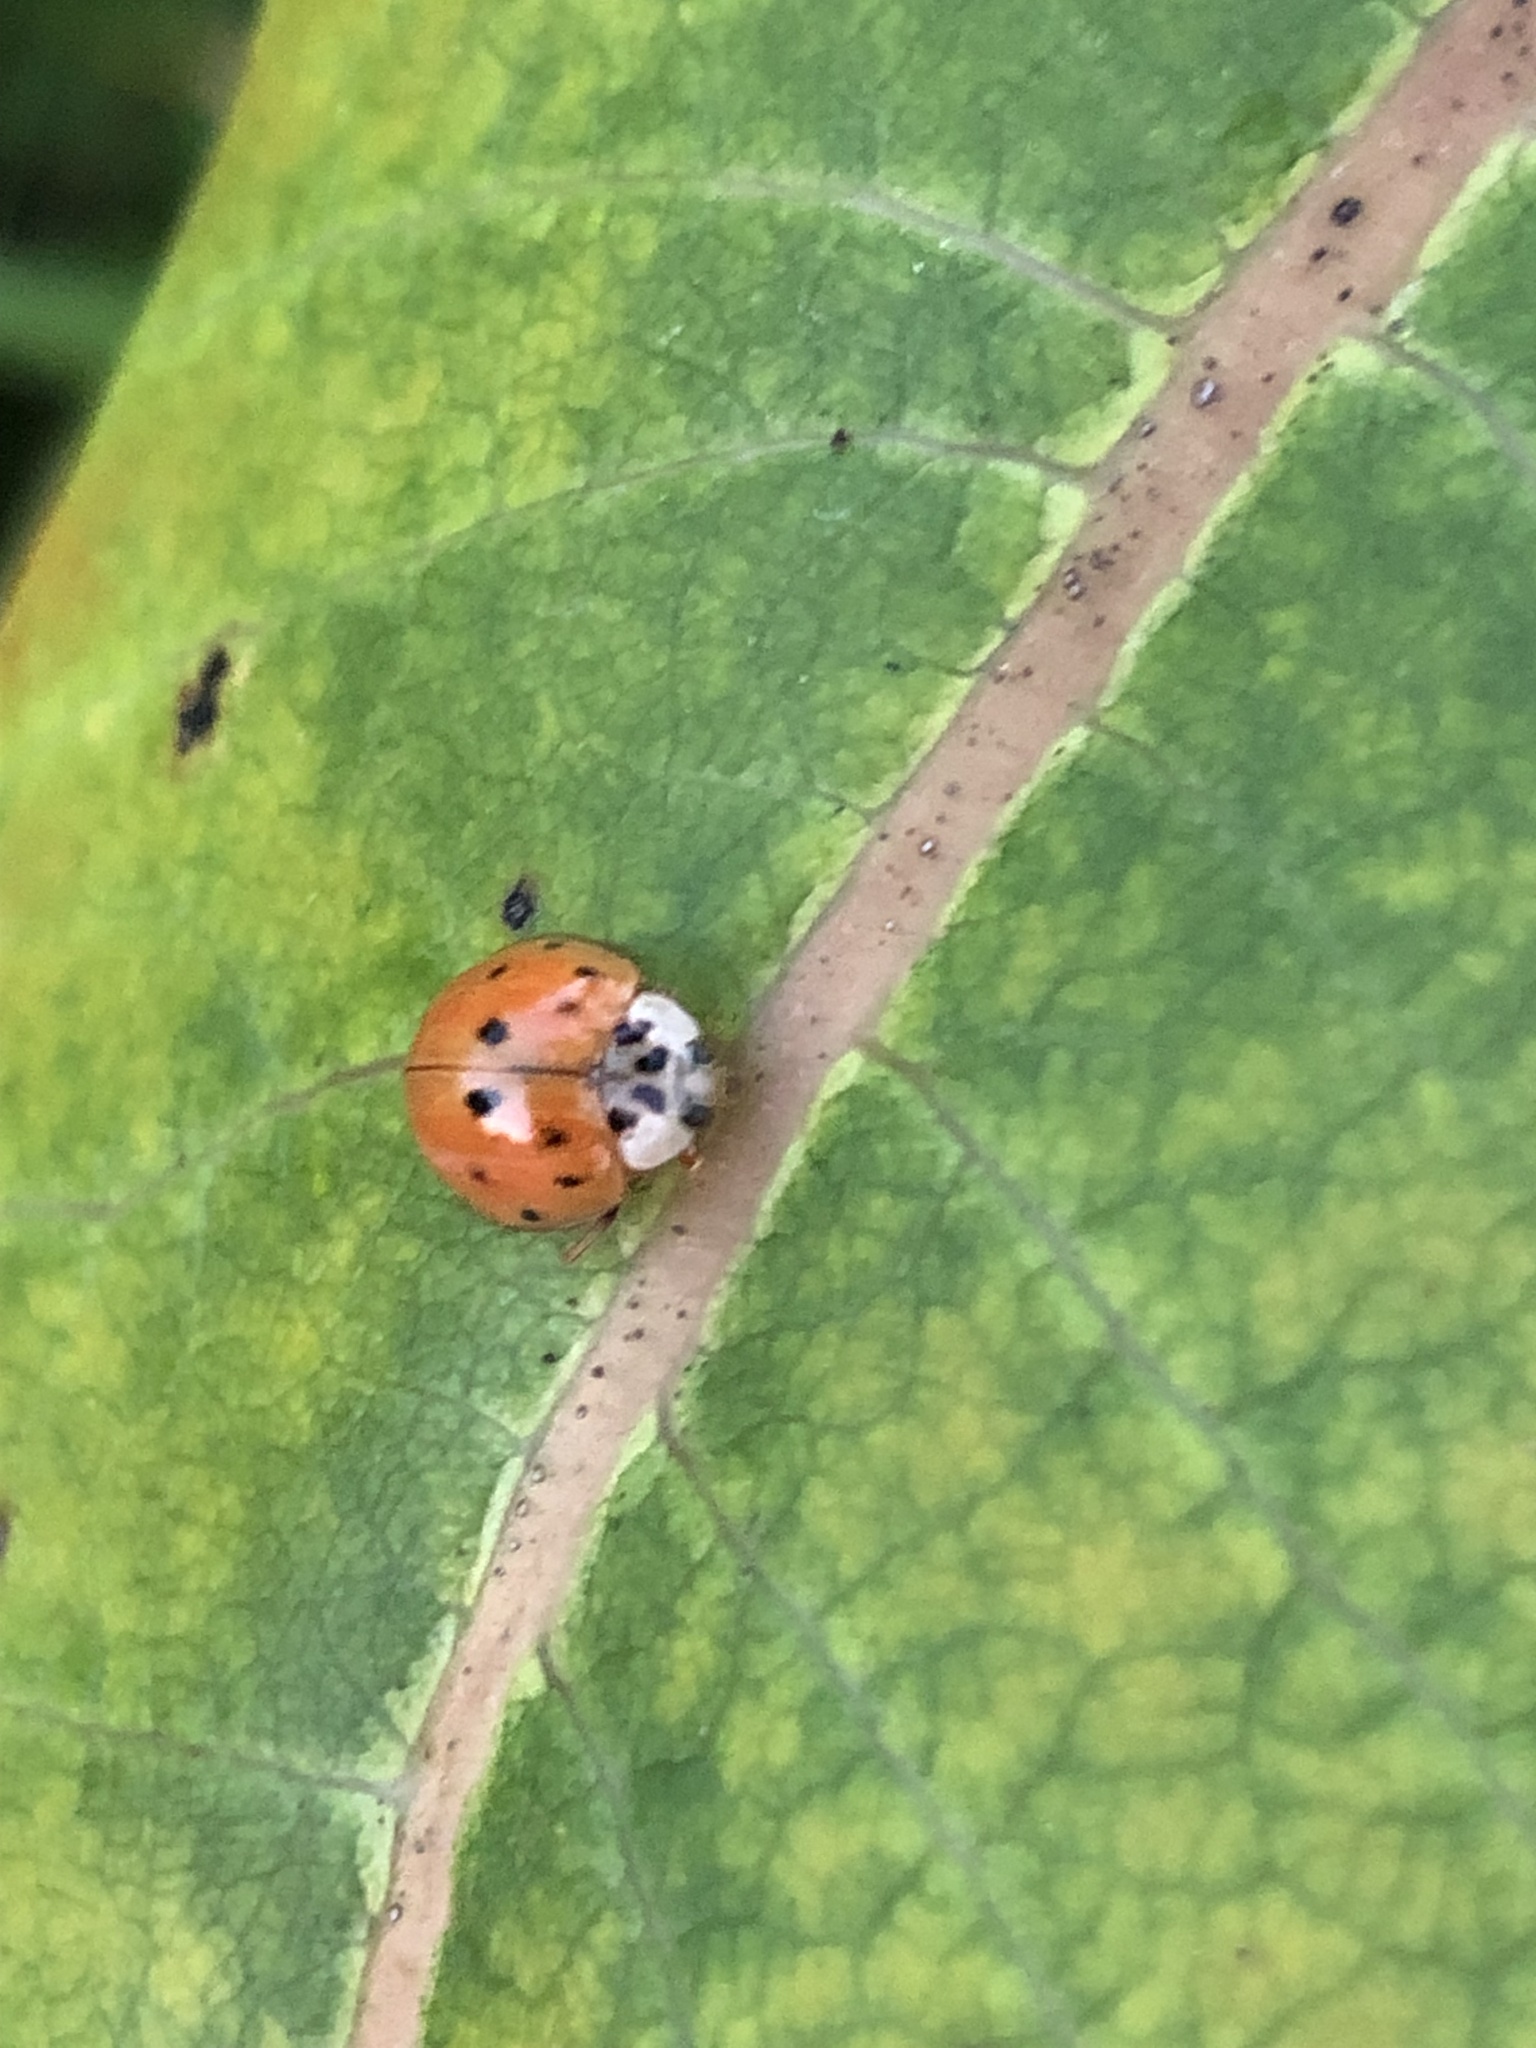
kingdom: Animalia
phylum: Arthropoda
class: Insecta
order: Coleoptera
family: Coccinellidae
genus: Harmonia
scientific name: Harmonia axyridis
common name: Harlequin ladybird
